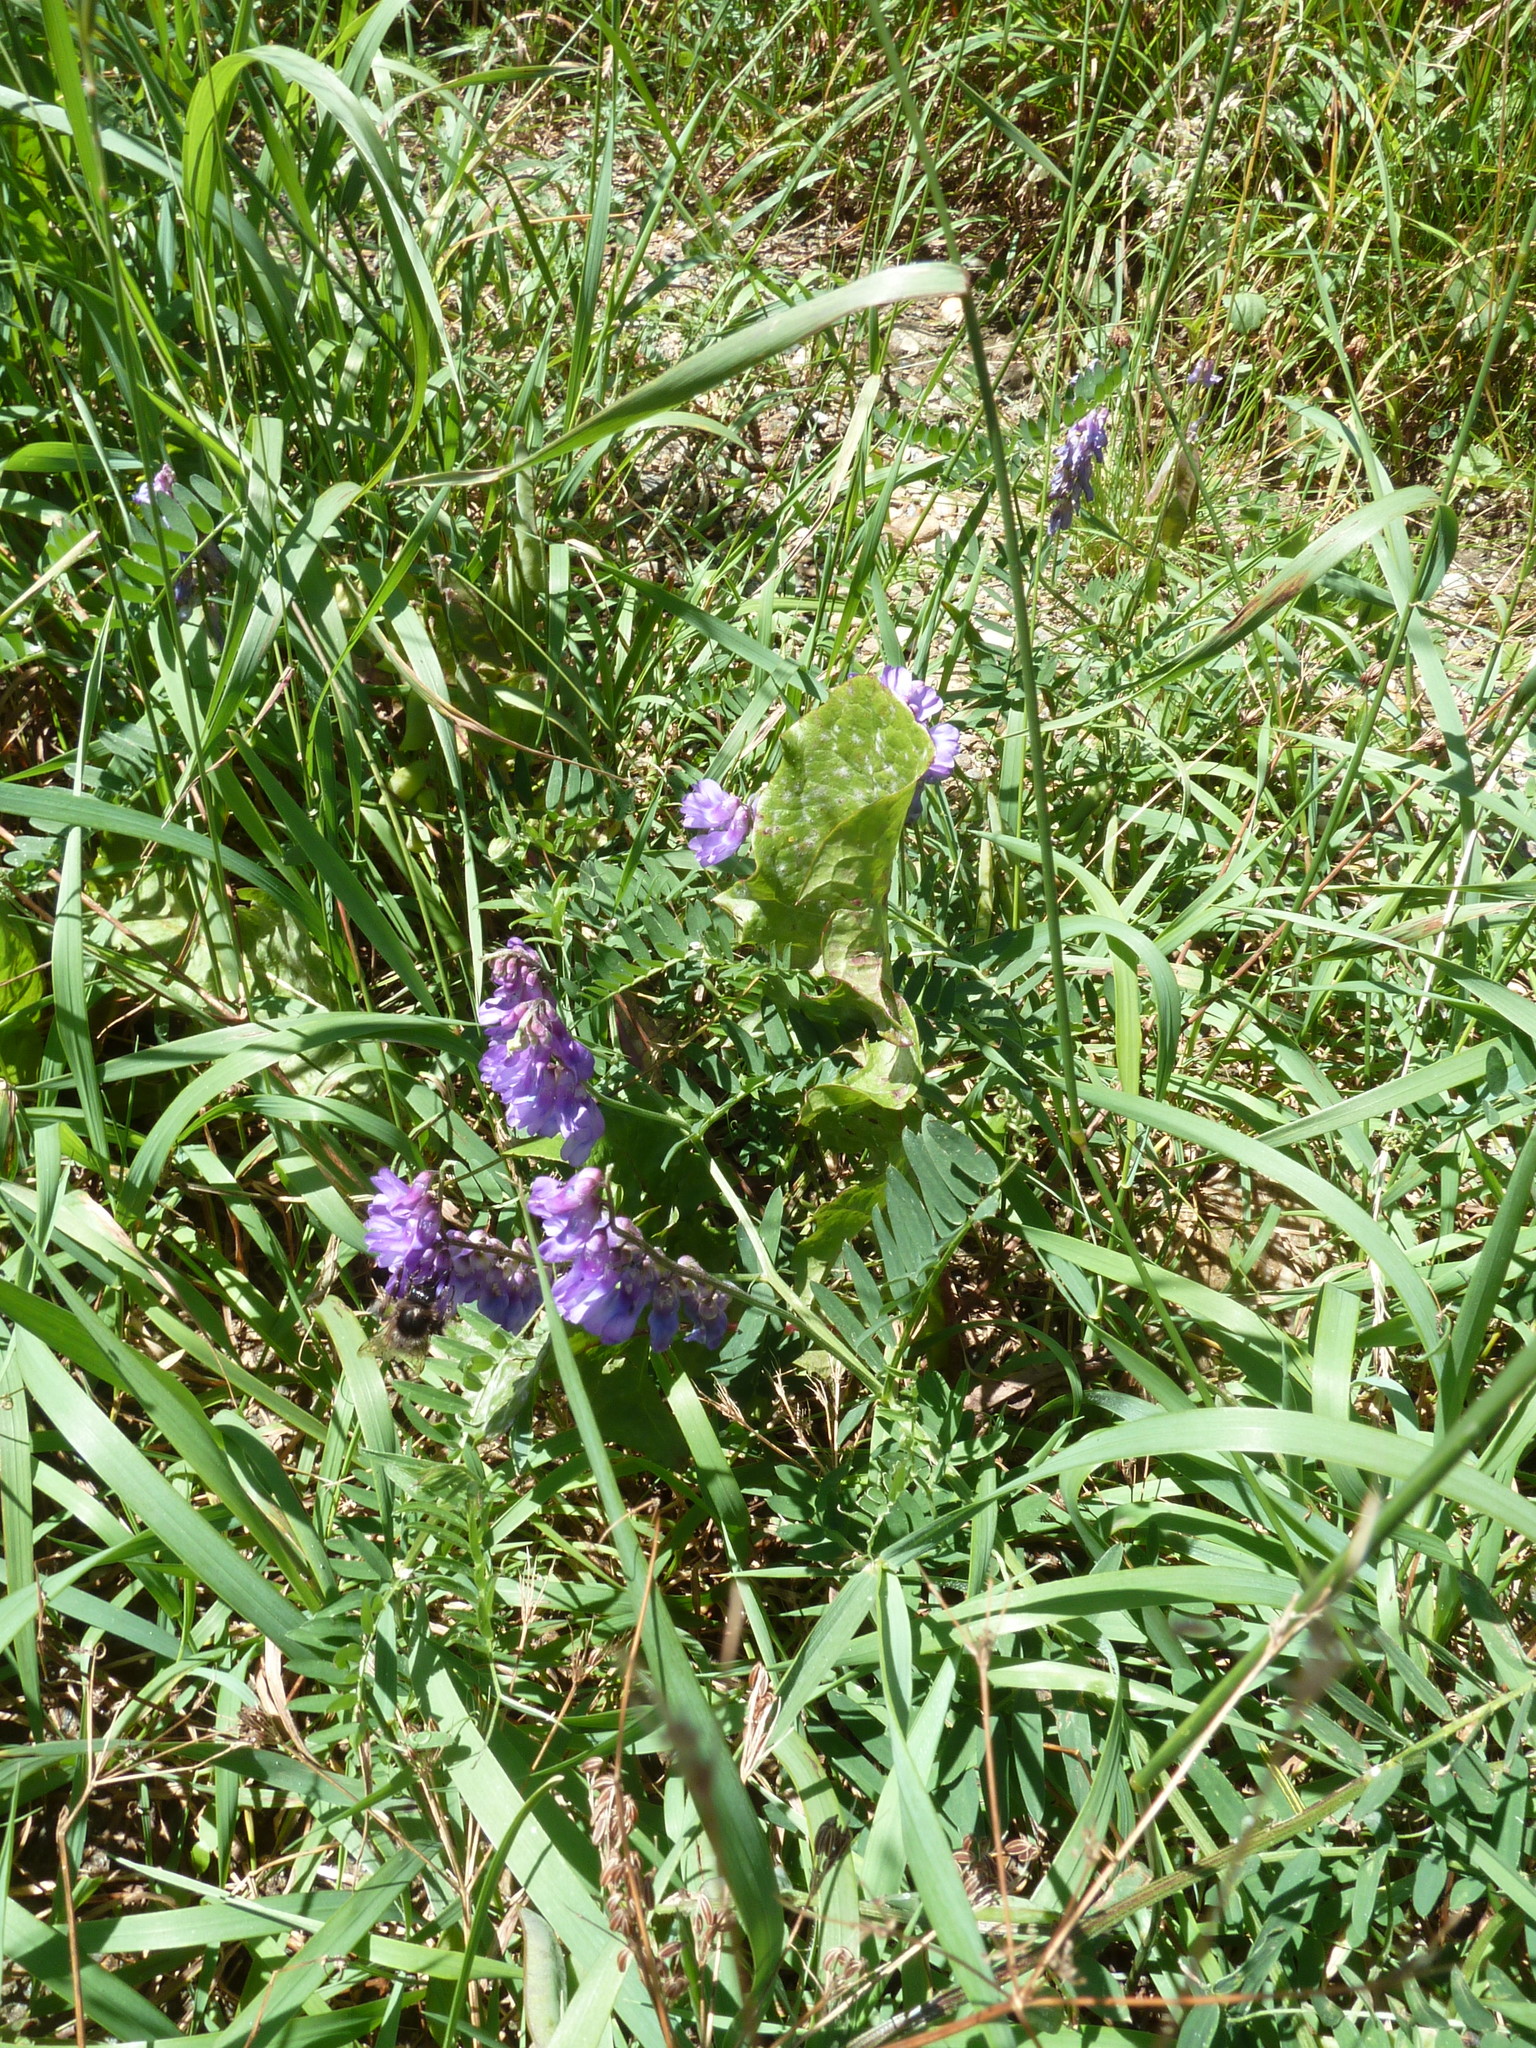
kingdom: Plantae
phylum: Tracheophyta
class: Magnoliopsida
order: Fabales
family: Fabaceae
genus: Vicia
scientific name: Vicia cracca
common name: Bird vetch
